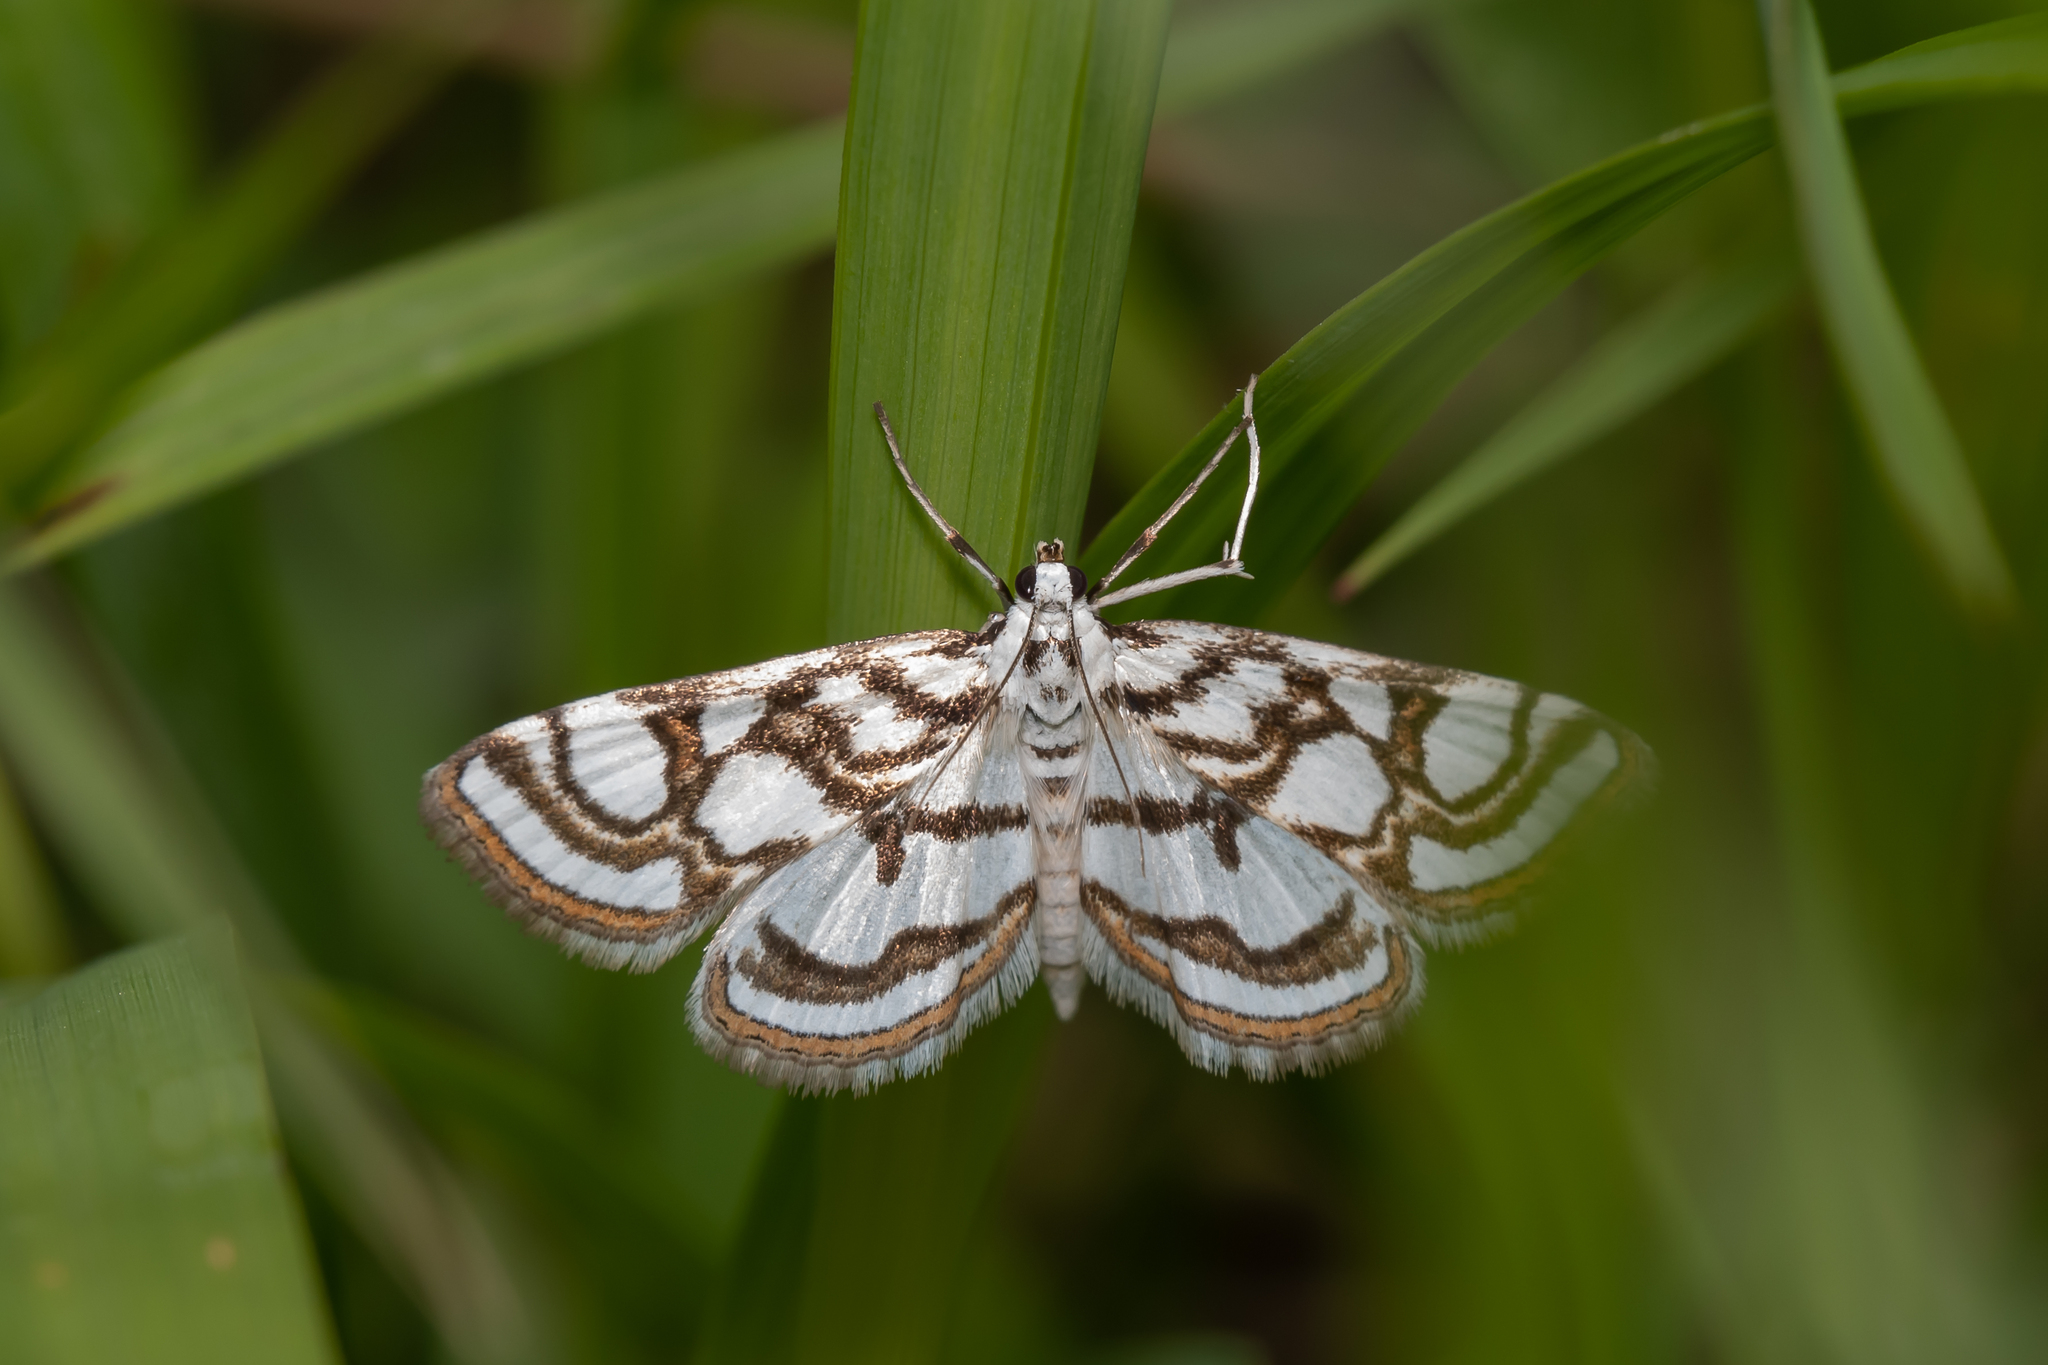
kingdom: Animalia
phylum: Arthropoda
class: Insecta
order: Lepidoptera
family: Crambidae
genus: Nymphula
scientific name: Nymphula nitidulata
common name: Beautiful china mark
